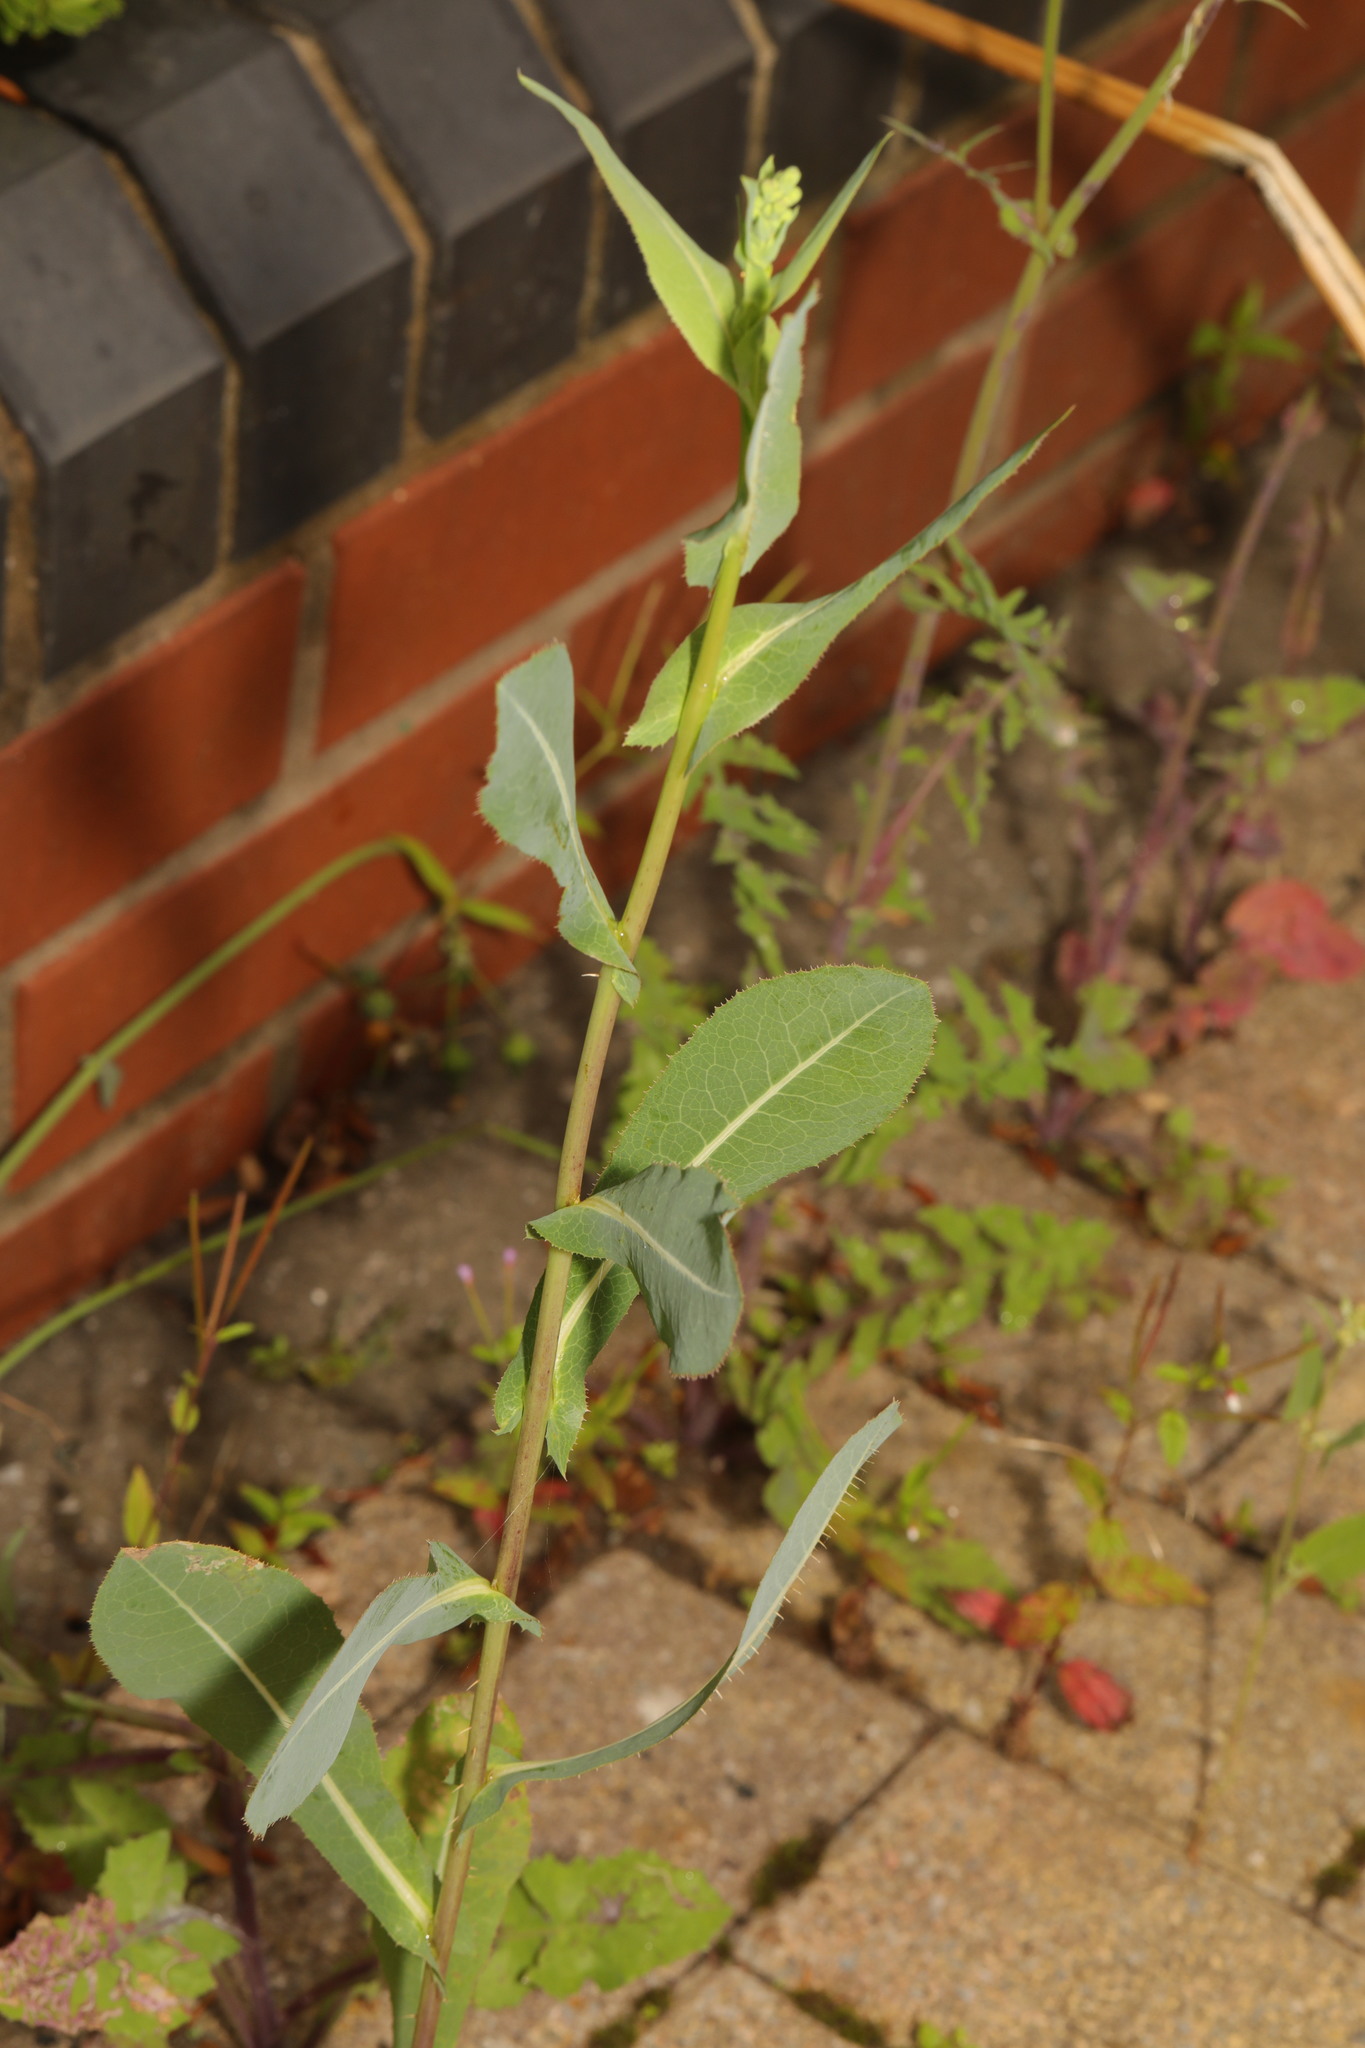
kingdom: Plantae
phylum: Tracheophyta
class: Magnoliopsida
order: Asterales
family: Asteraceae
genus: Lactuca
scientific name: Lactuca serriola
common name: Prickly lettuce
